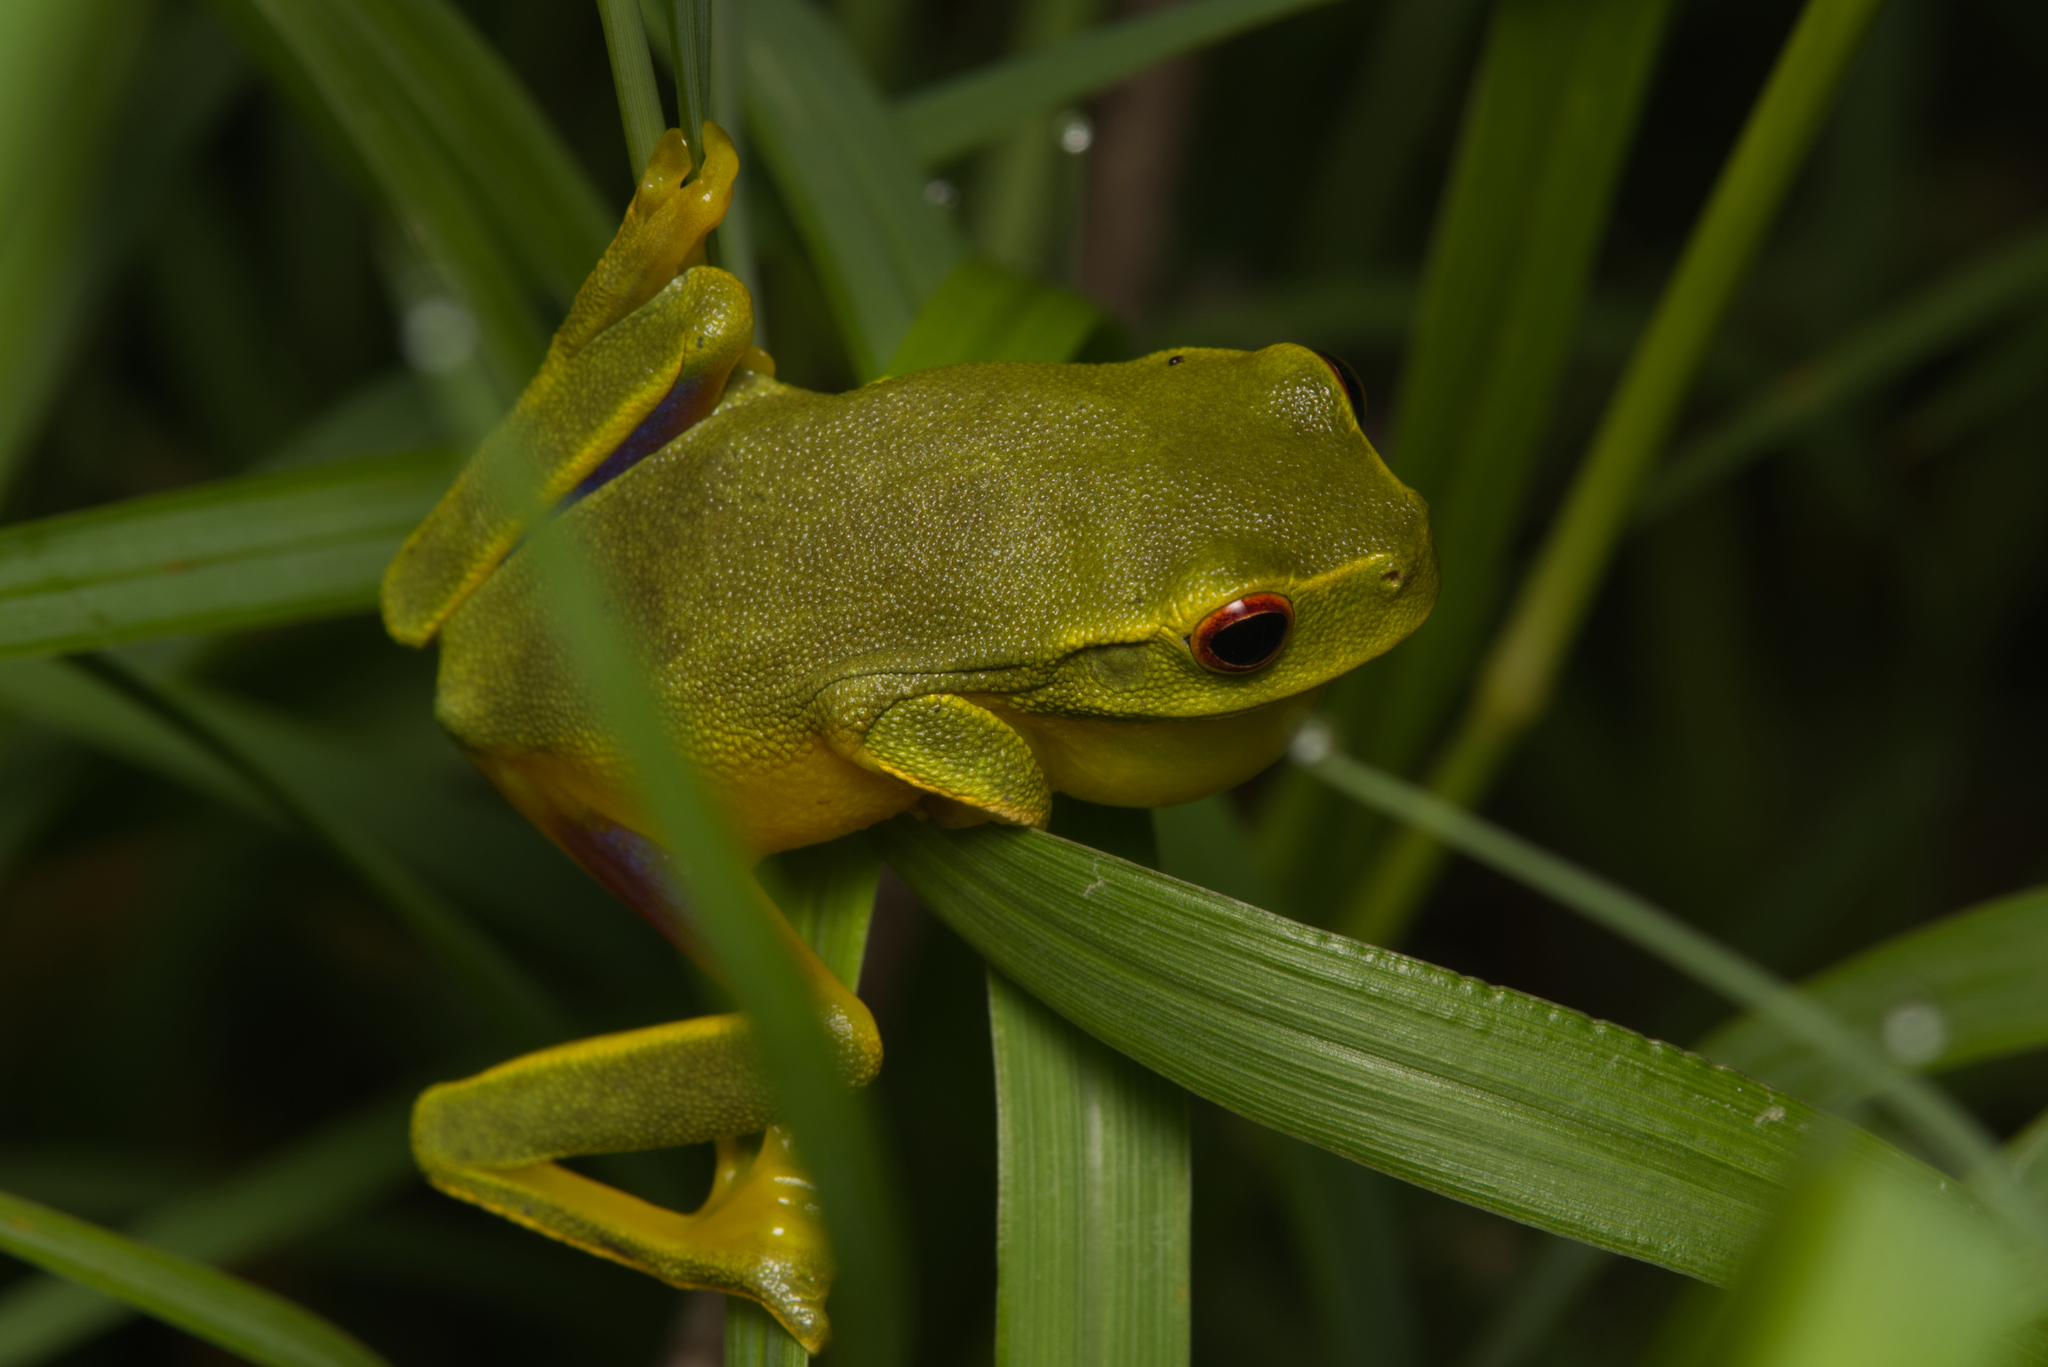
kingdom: Animalia
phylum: Chordata
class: Amphibia
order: Anura
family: Pelodryadidae
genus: Ranoidea
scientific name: Ranoidea gracilenta
